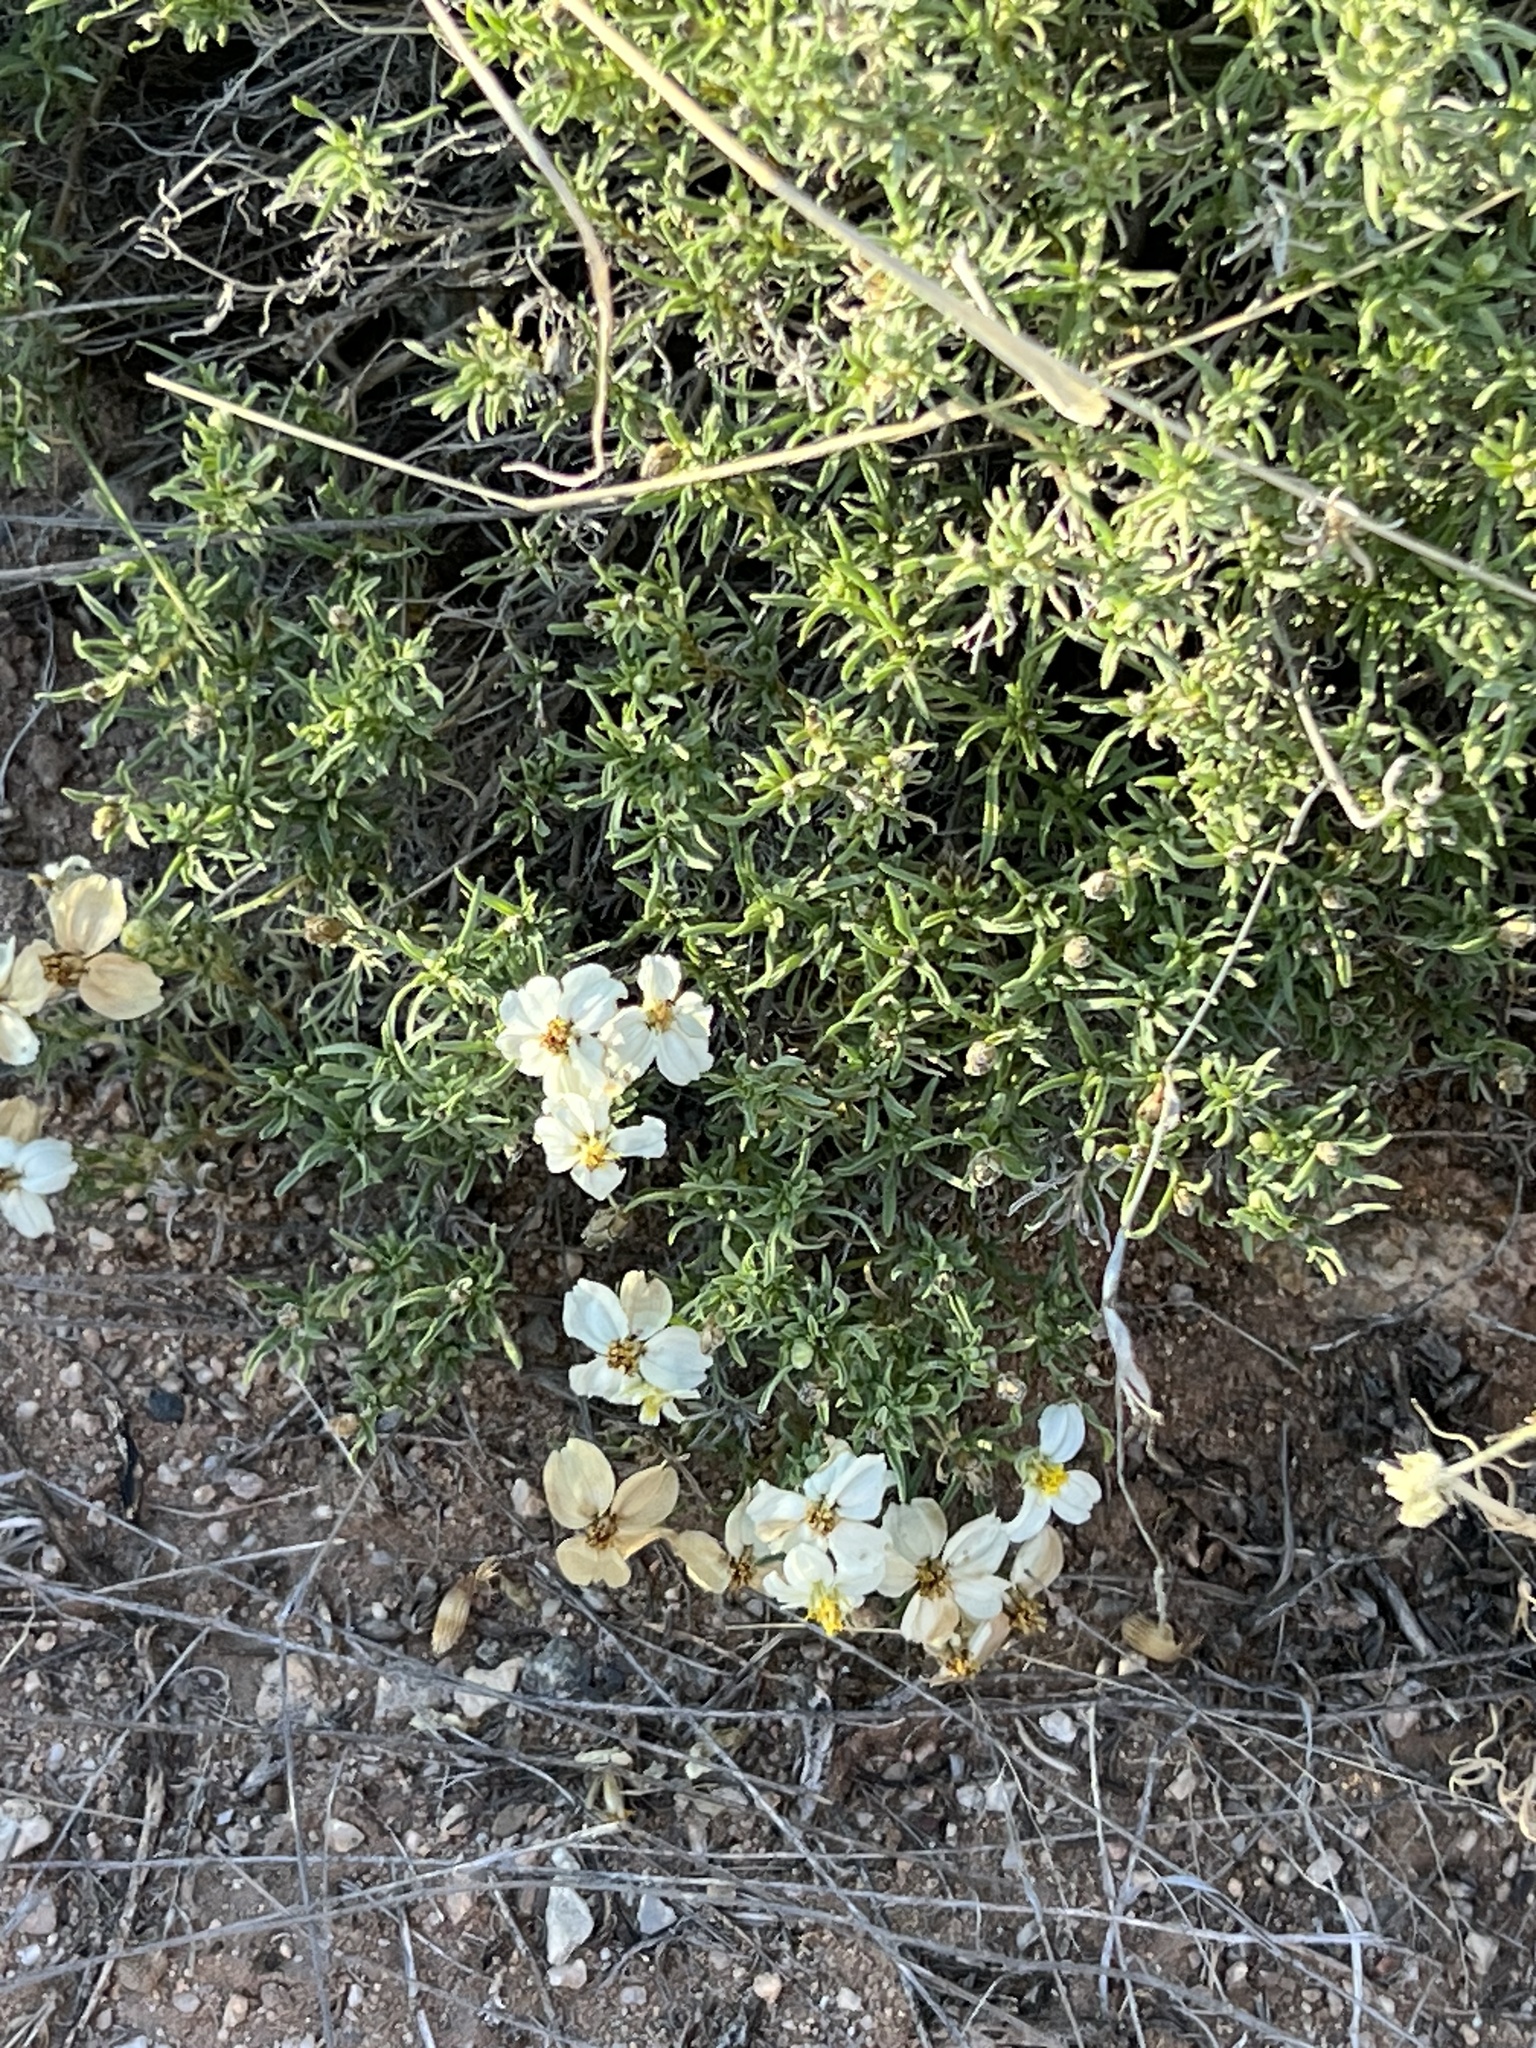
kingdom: Plantae
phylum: Tracheophyta
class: Magnoliopsida
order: Asterales
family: Asteraceae
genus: Zinnia
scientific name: Zinnia acerosa
